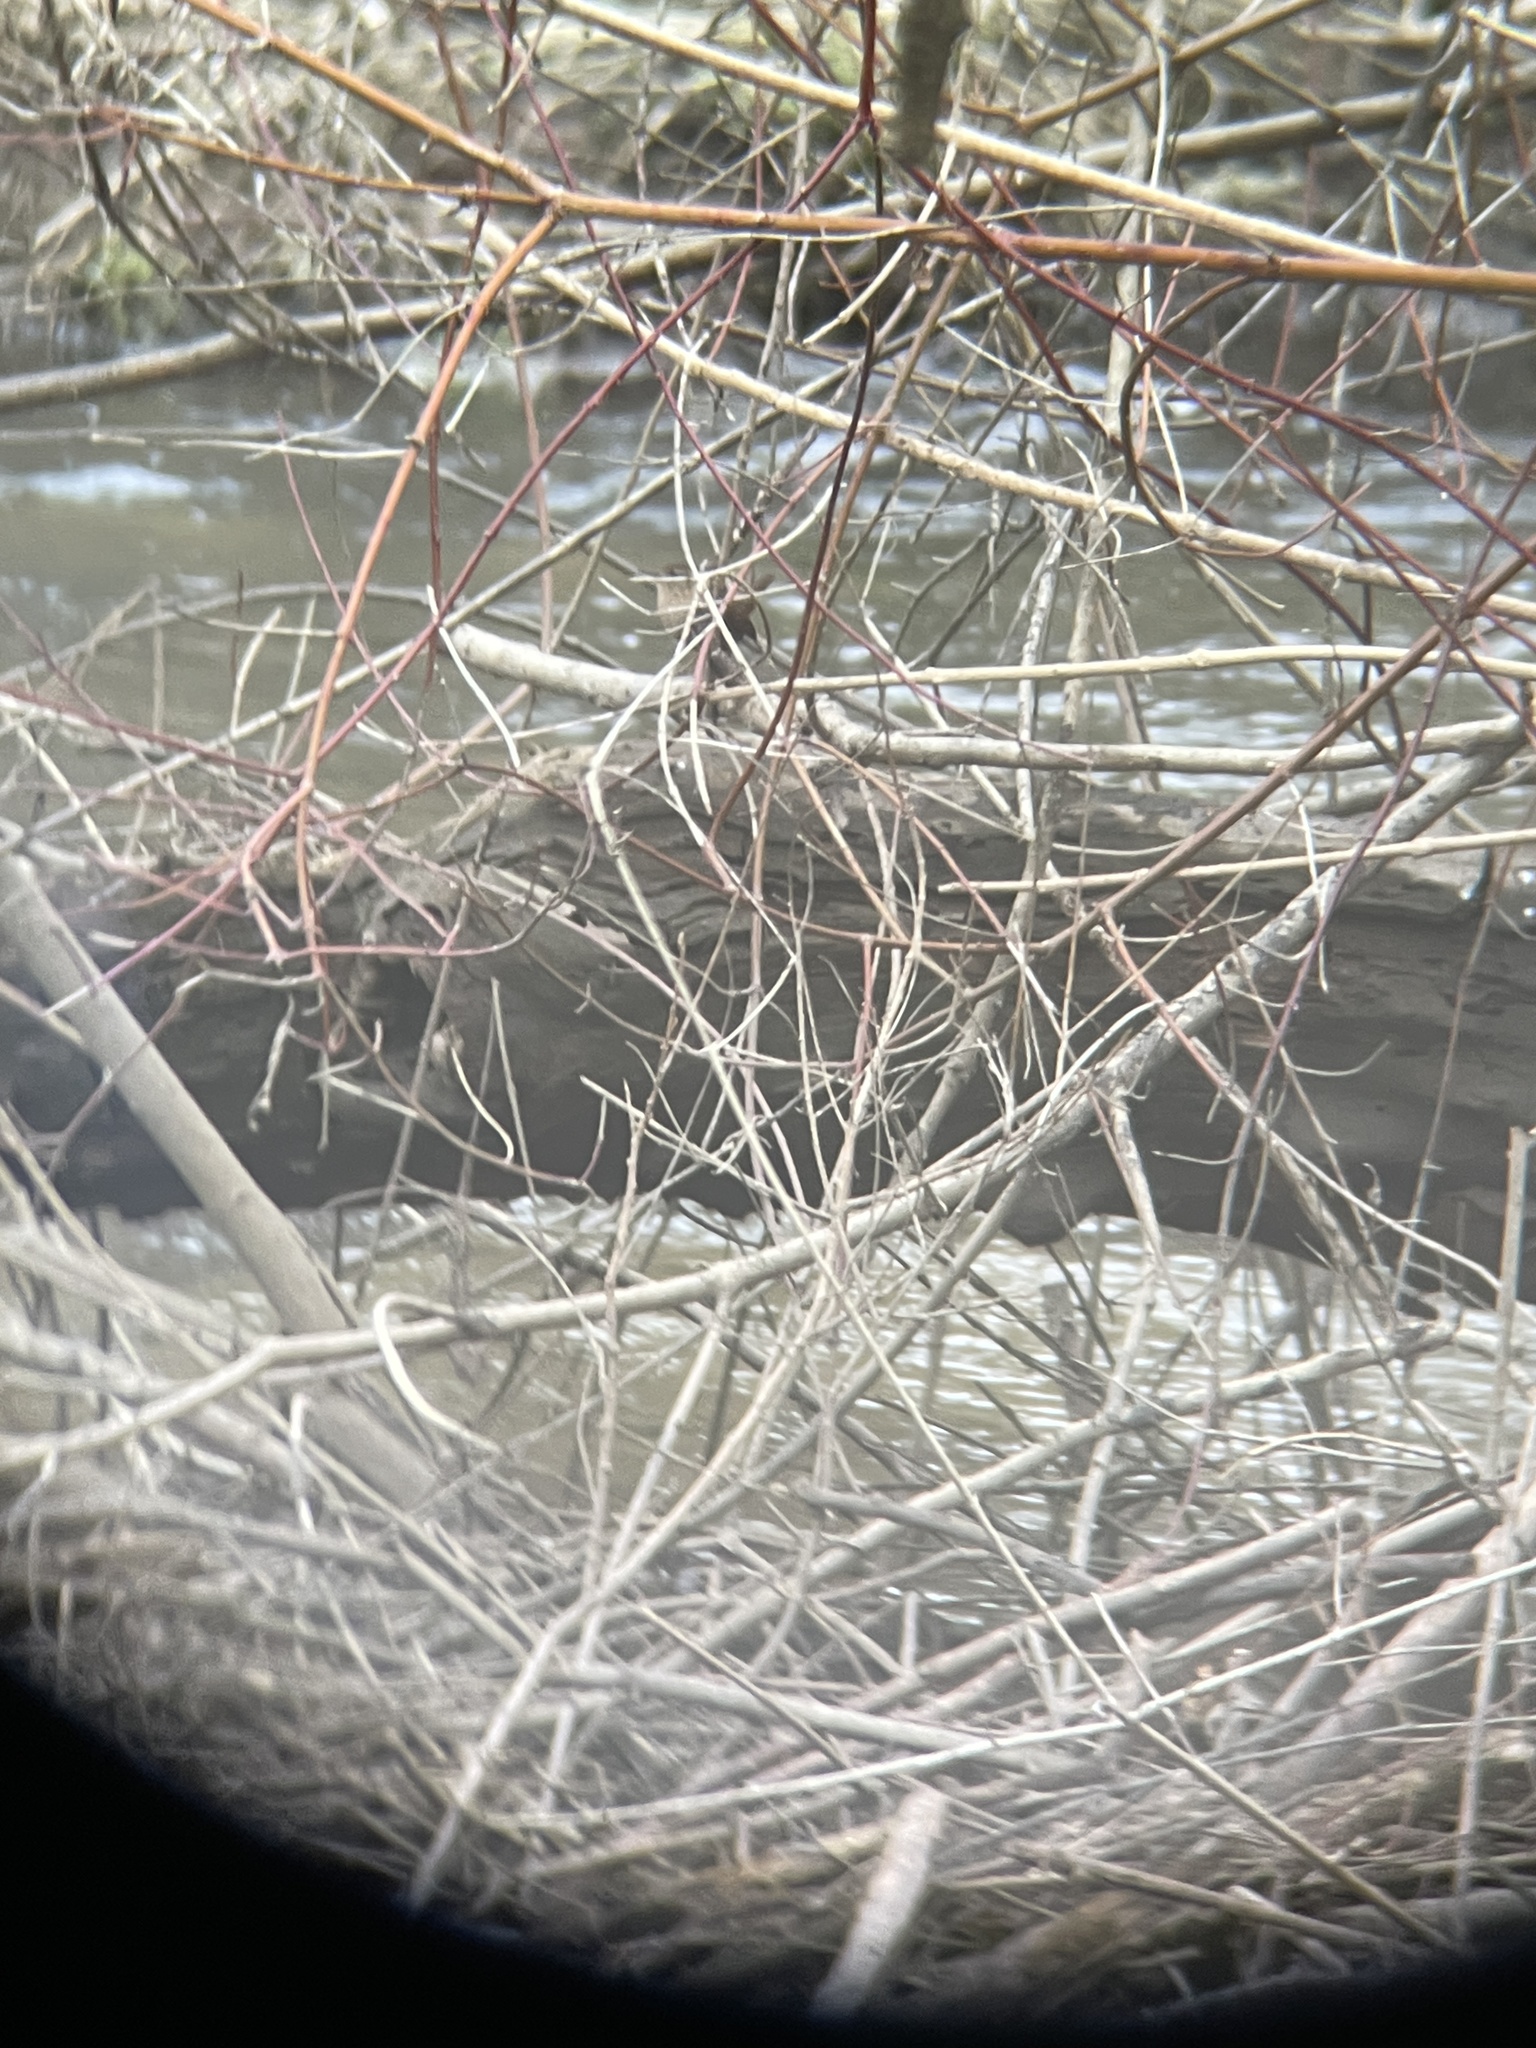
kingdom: Animalia
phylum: Chordata
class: Aves
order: Passeriformes
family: Troglodytidae
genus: Troglodytes
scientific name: Troglodytes hiemalis
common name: Winter wren
